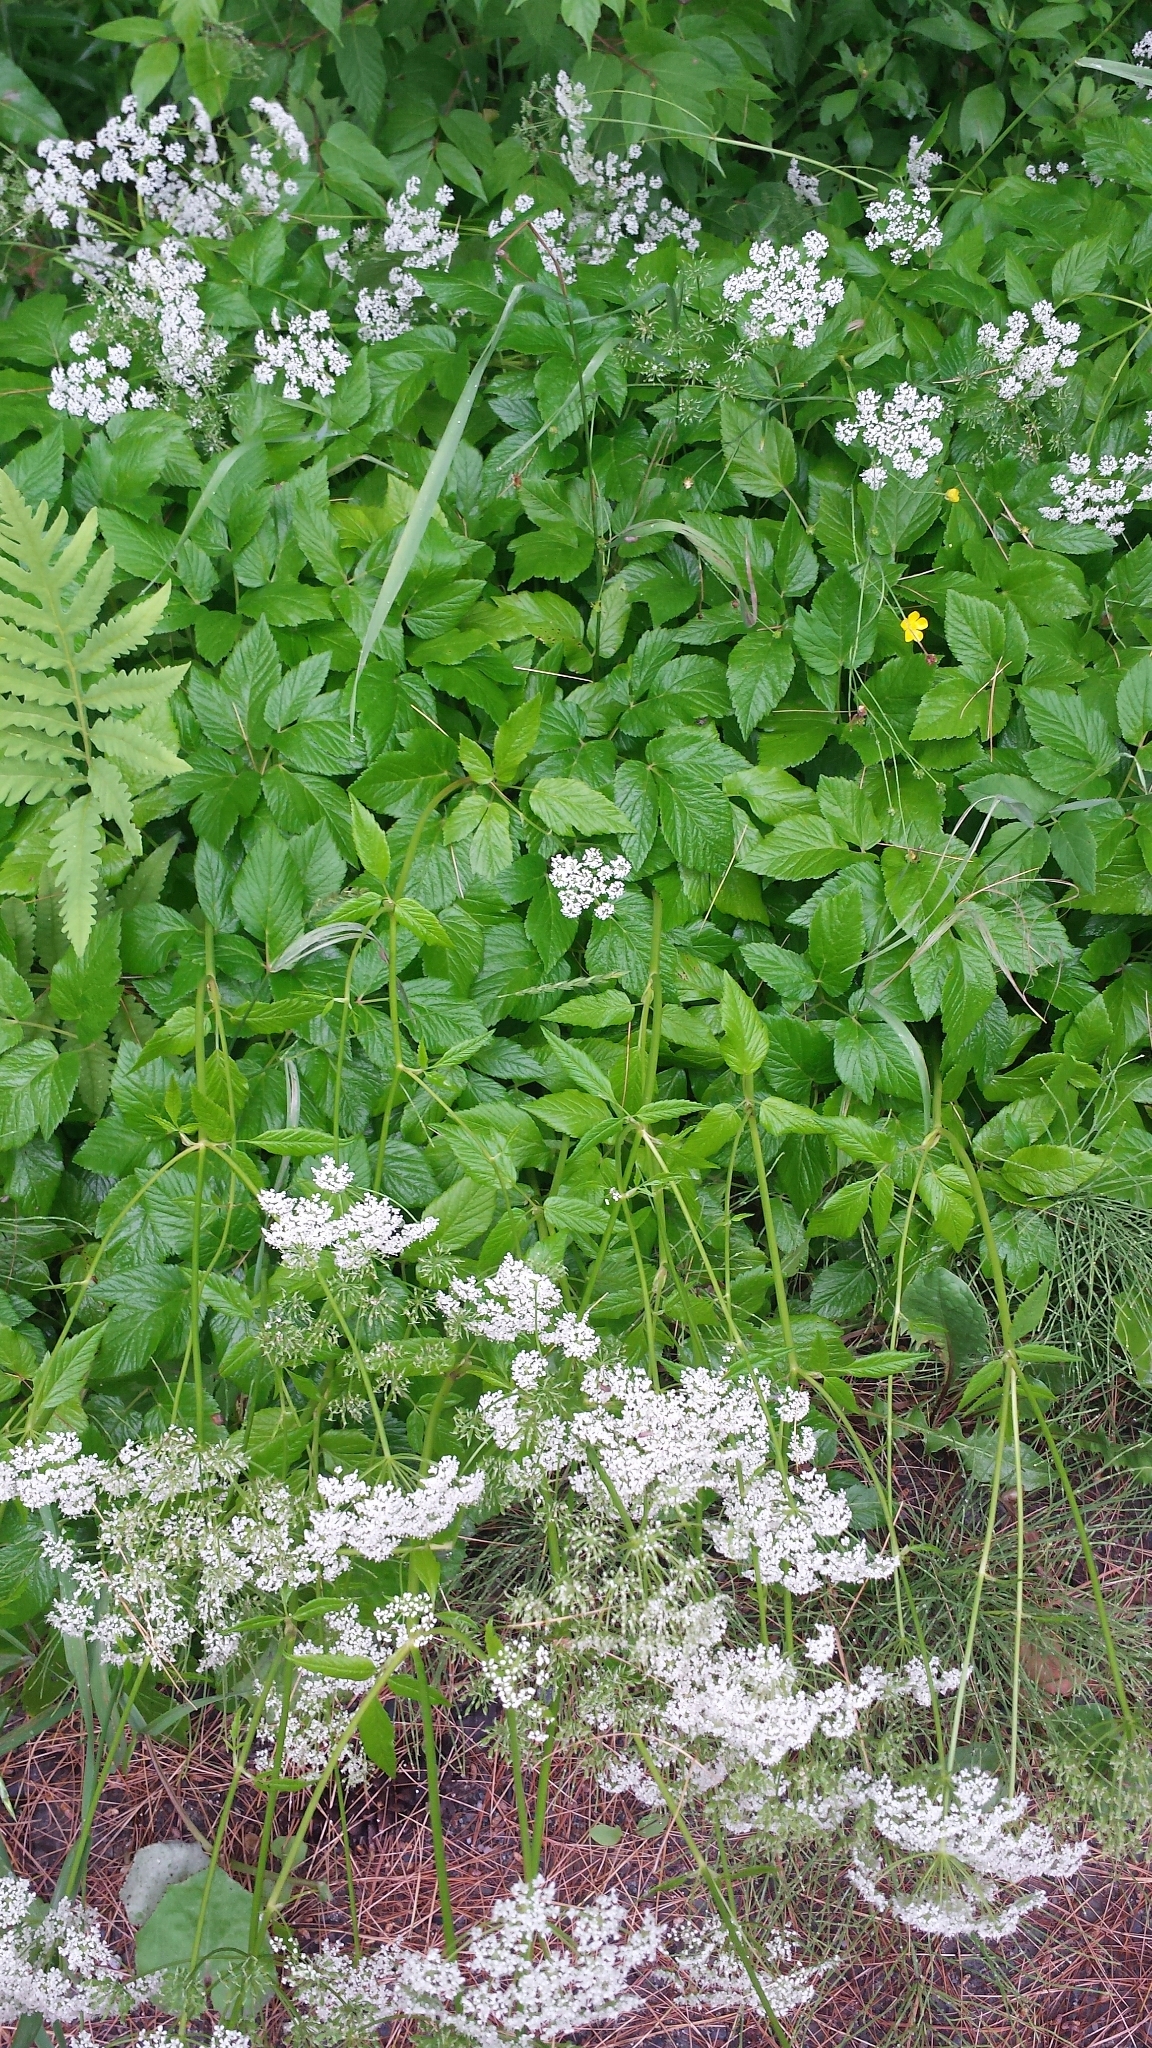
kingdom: Plantae
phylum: Tracheophyta
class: Magnoliopsida
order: Apiales
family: Apiaceae
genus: Aegopodium
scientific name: Aegopodium podagraria
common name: Ground-elder
